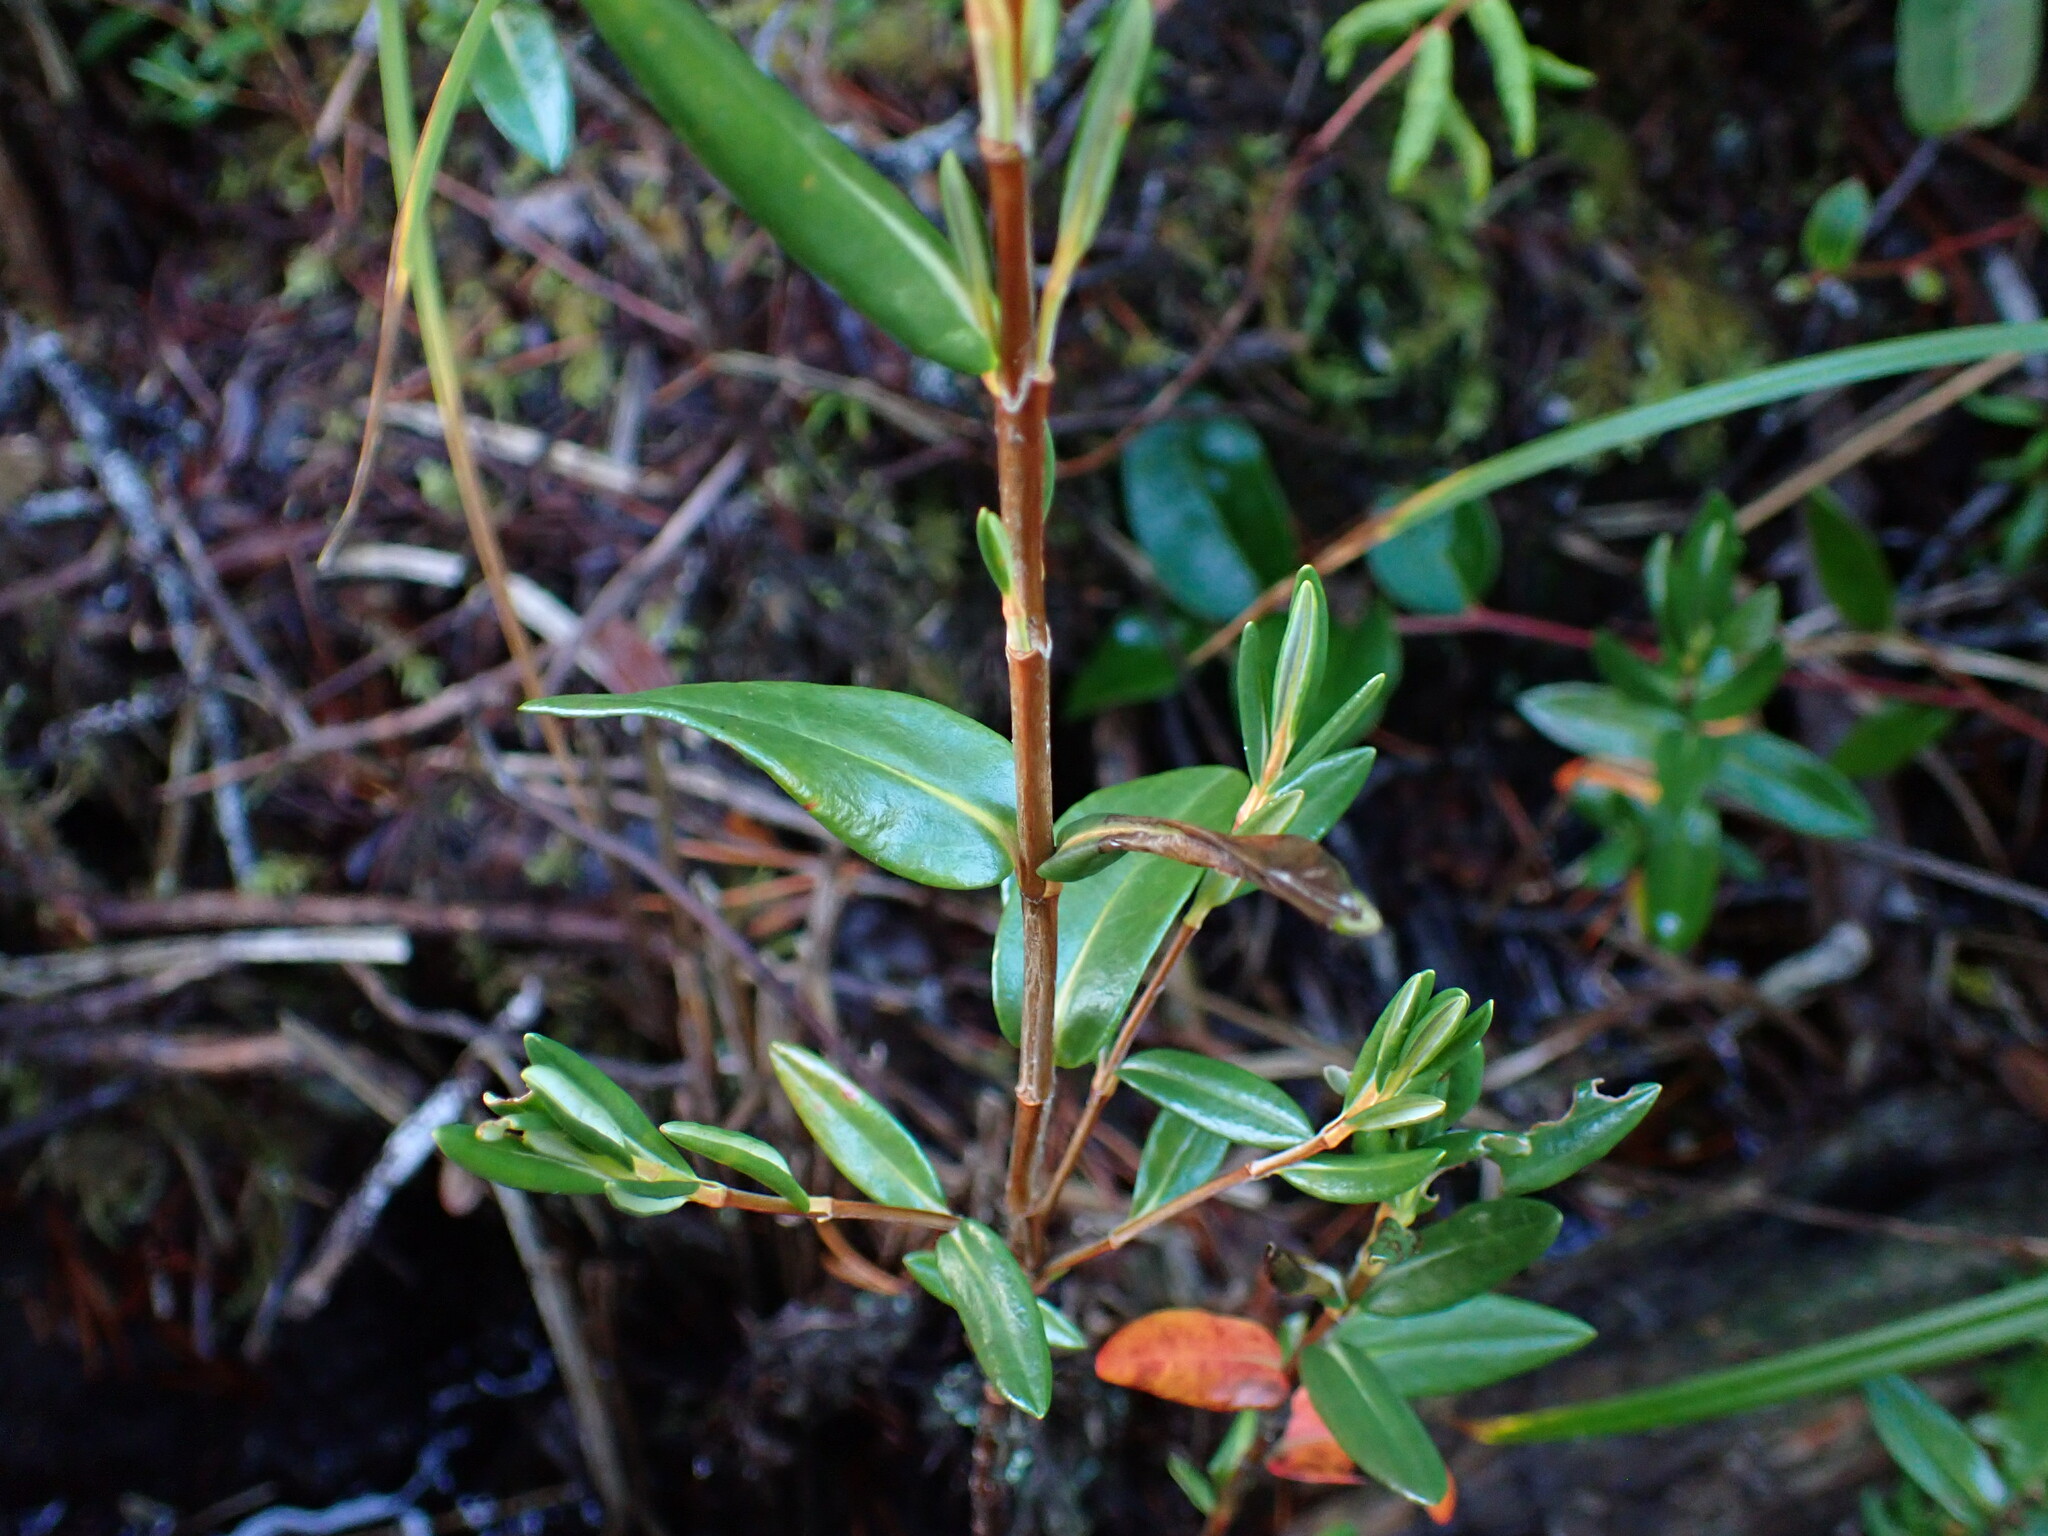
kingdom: Plantae
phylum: Tracheophyta
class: Magnoliopsida
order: Ericales
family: Ericaceae
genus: Kalmia
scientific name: Kalmia microphylla
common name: Alpine bog laurel
